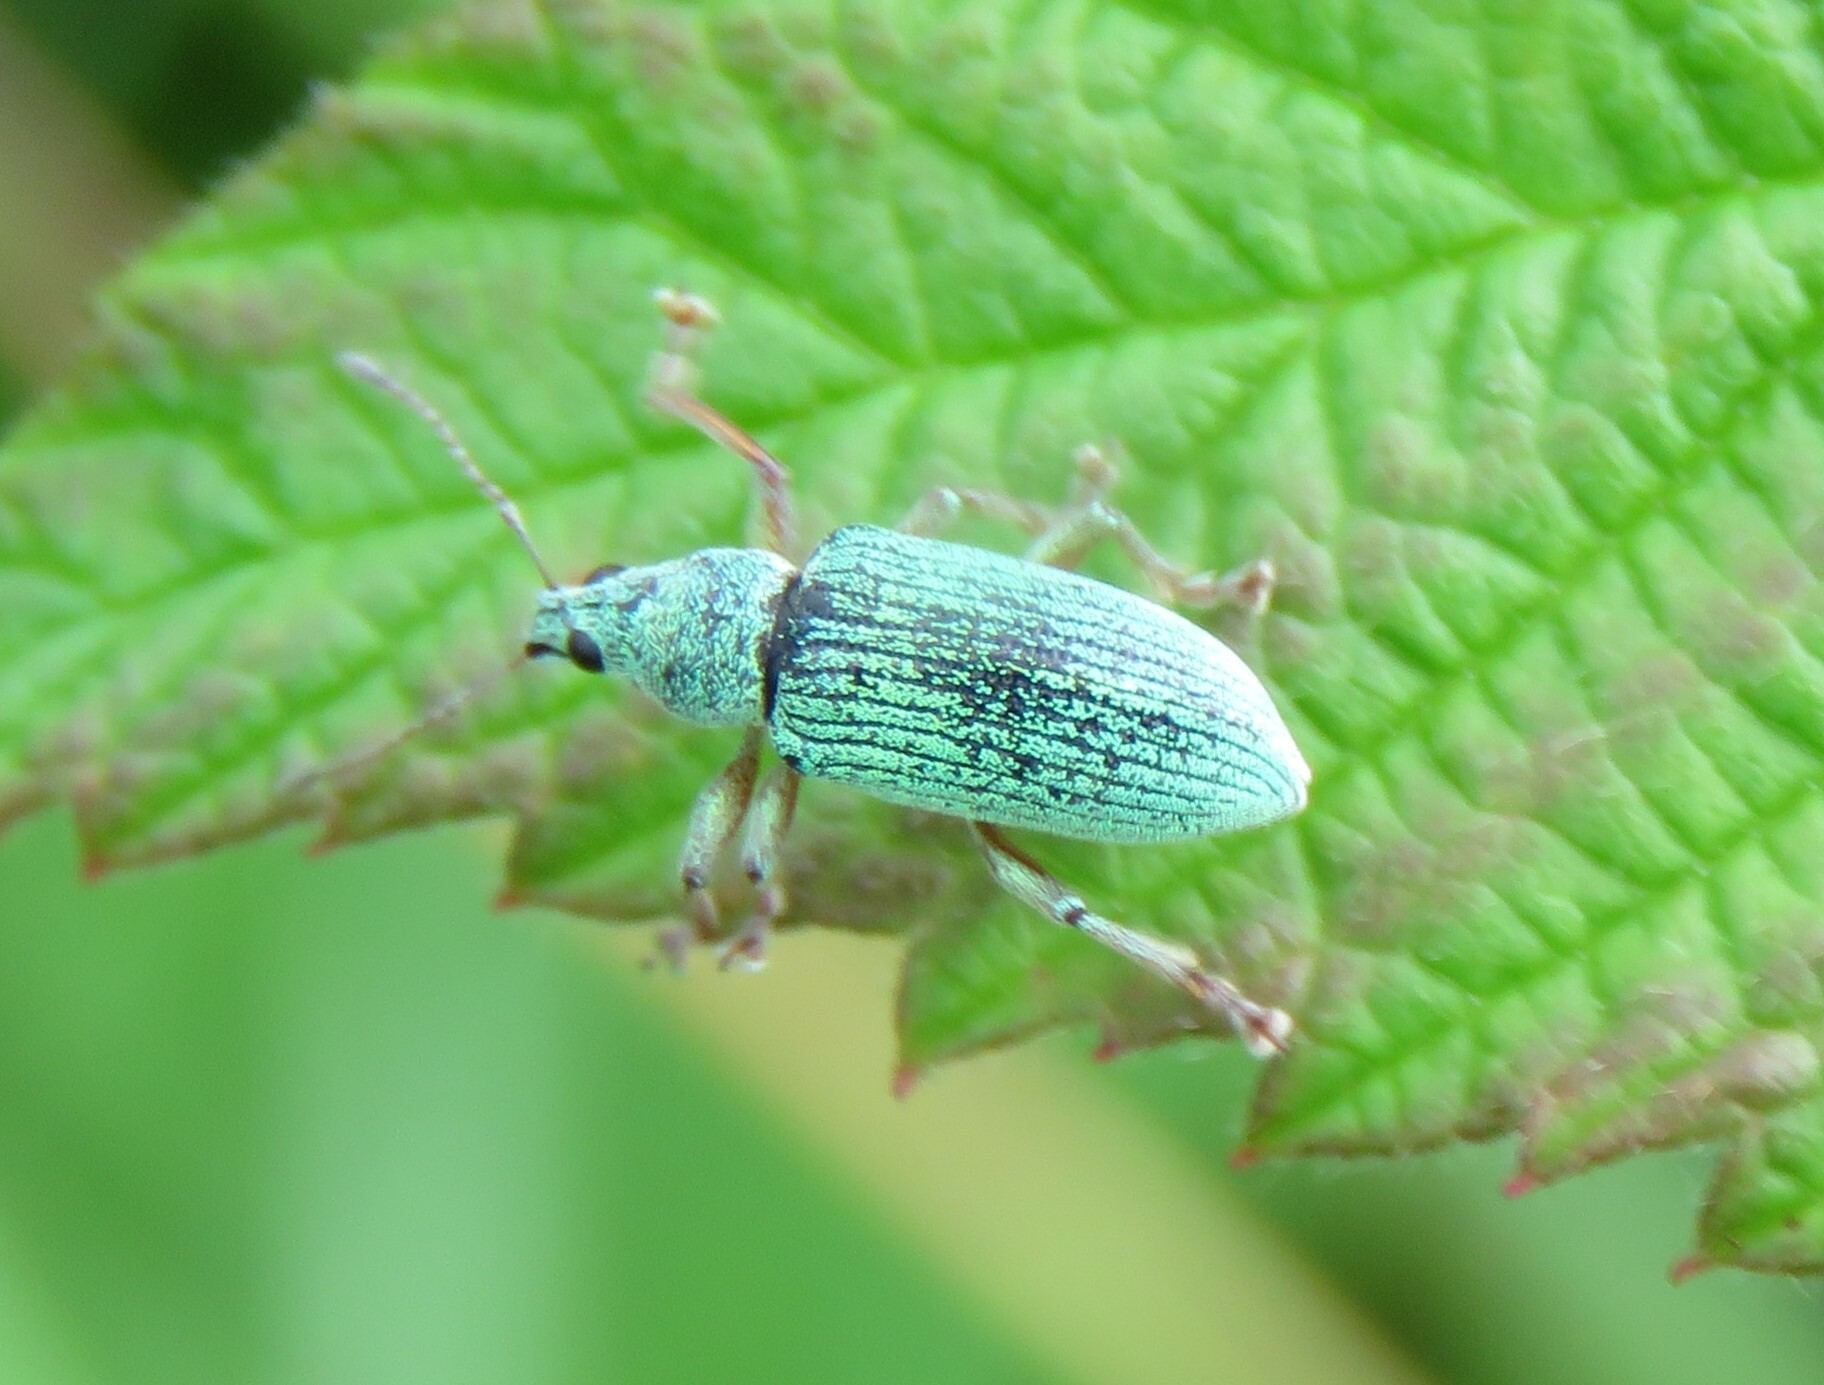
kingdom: Animalia
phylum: Arthropoda
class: Insecta
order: Coleoptera
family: Curculionidae
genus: Polydrusus
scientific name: Polydrusus formosus
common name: Weevil
